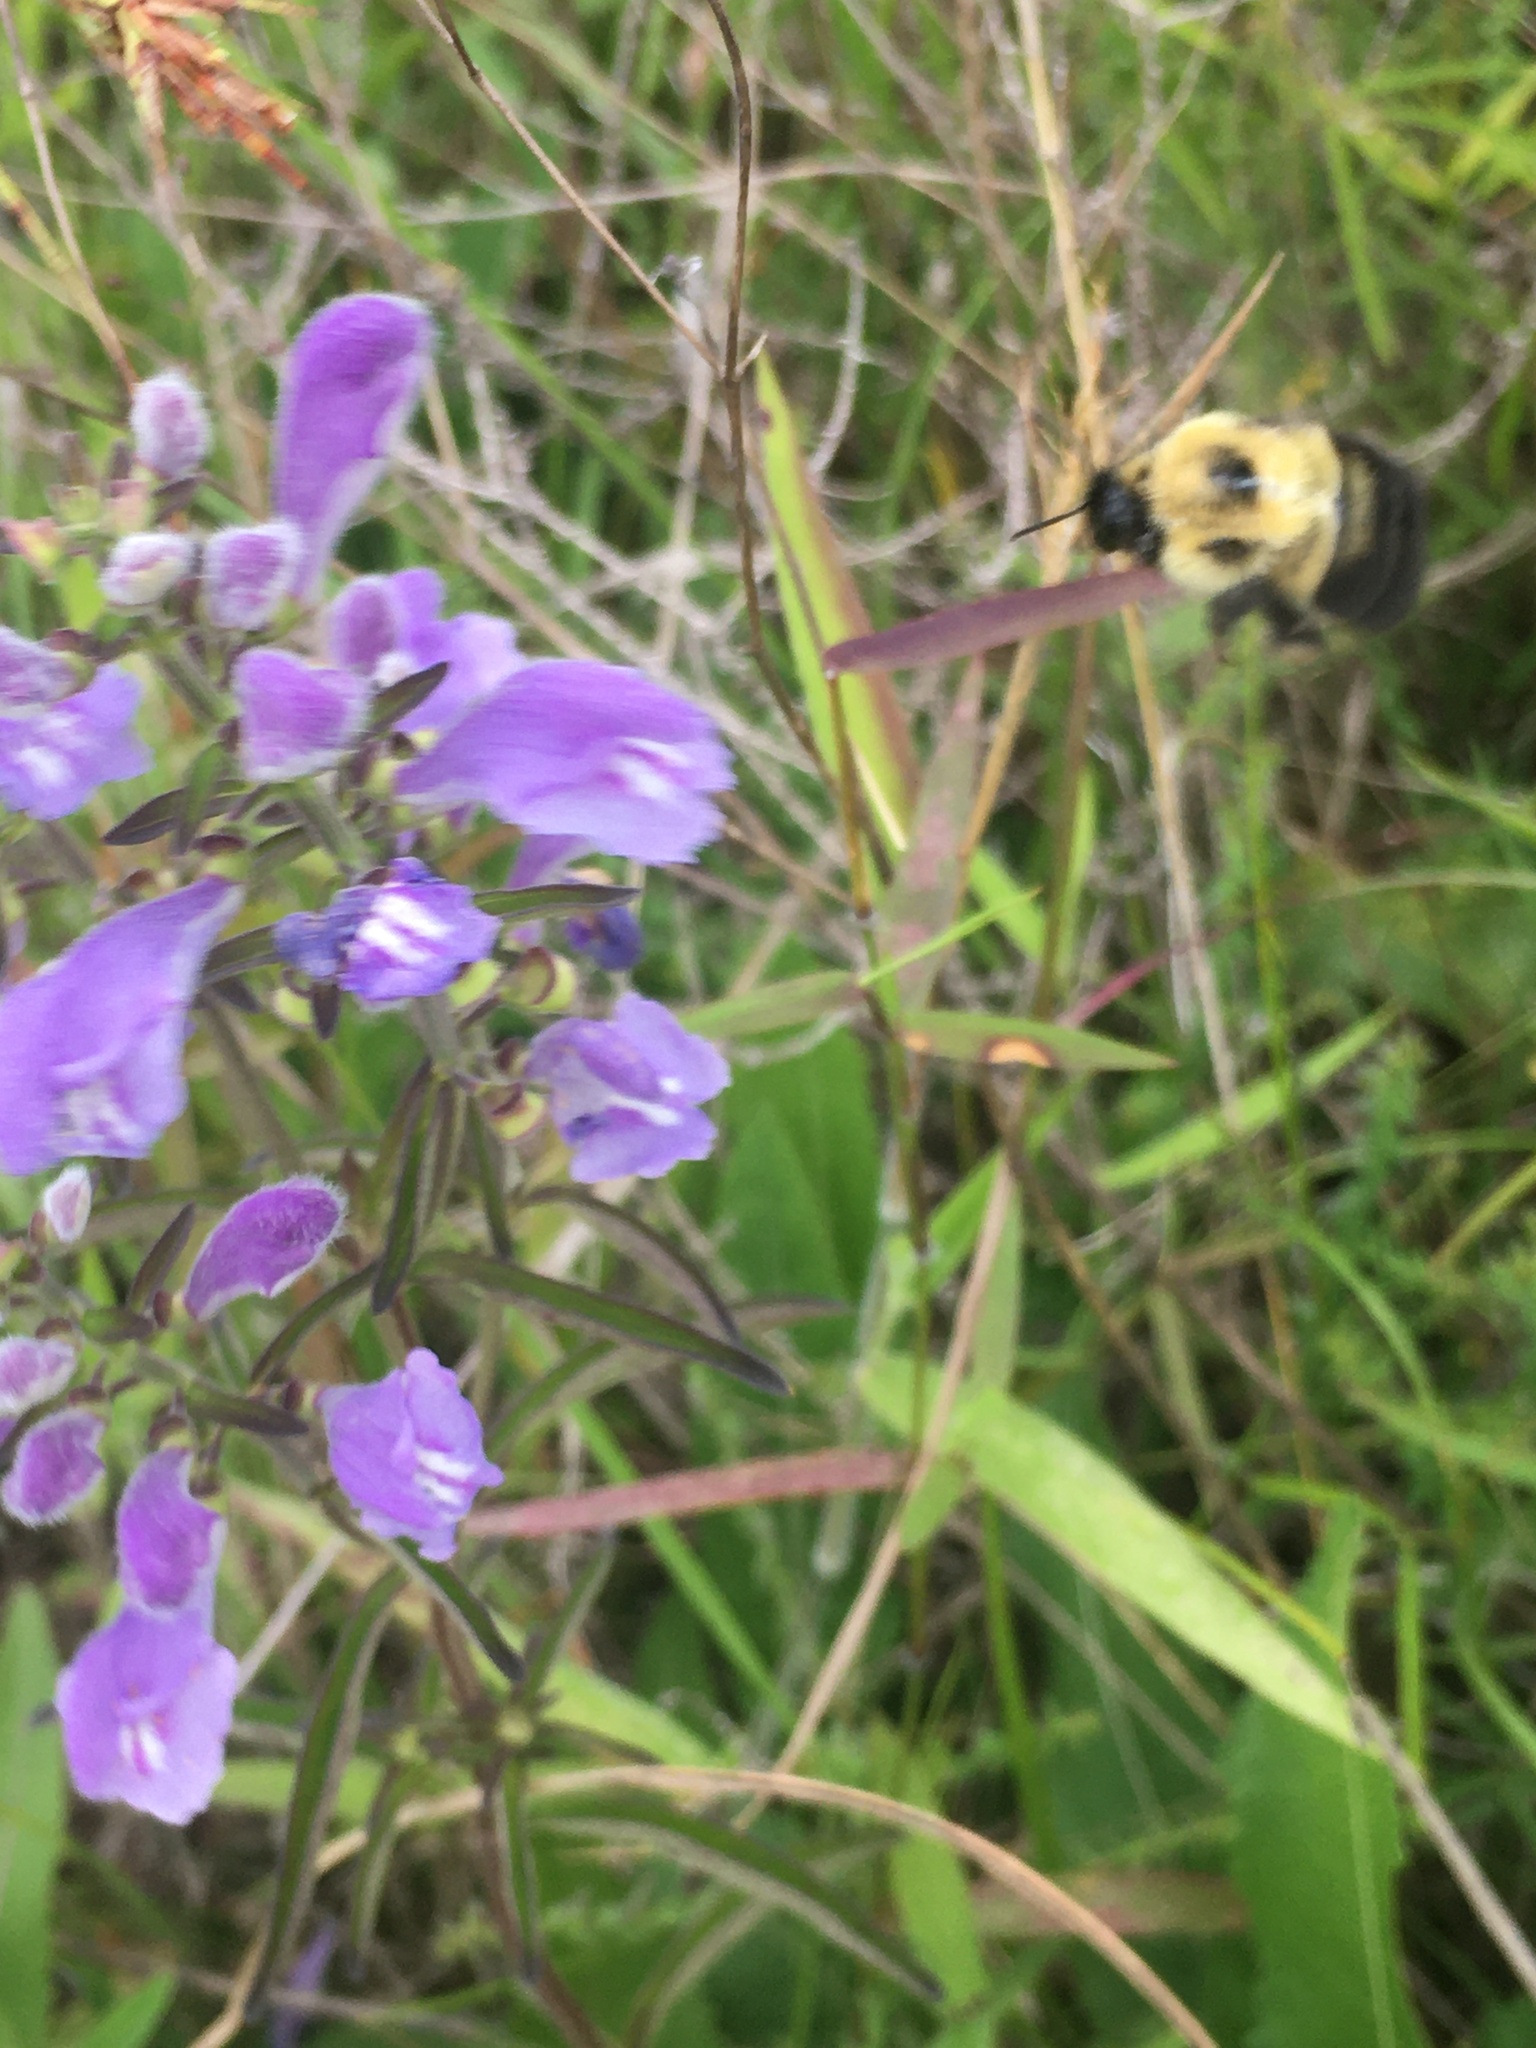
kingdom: Animalia
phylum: Arthropoda
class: Insecta
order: Hymenoptera
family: Apidae
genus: Bombus
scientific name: Bombus bimaculatus
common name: Two-spotted bumble bee
